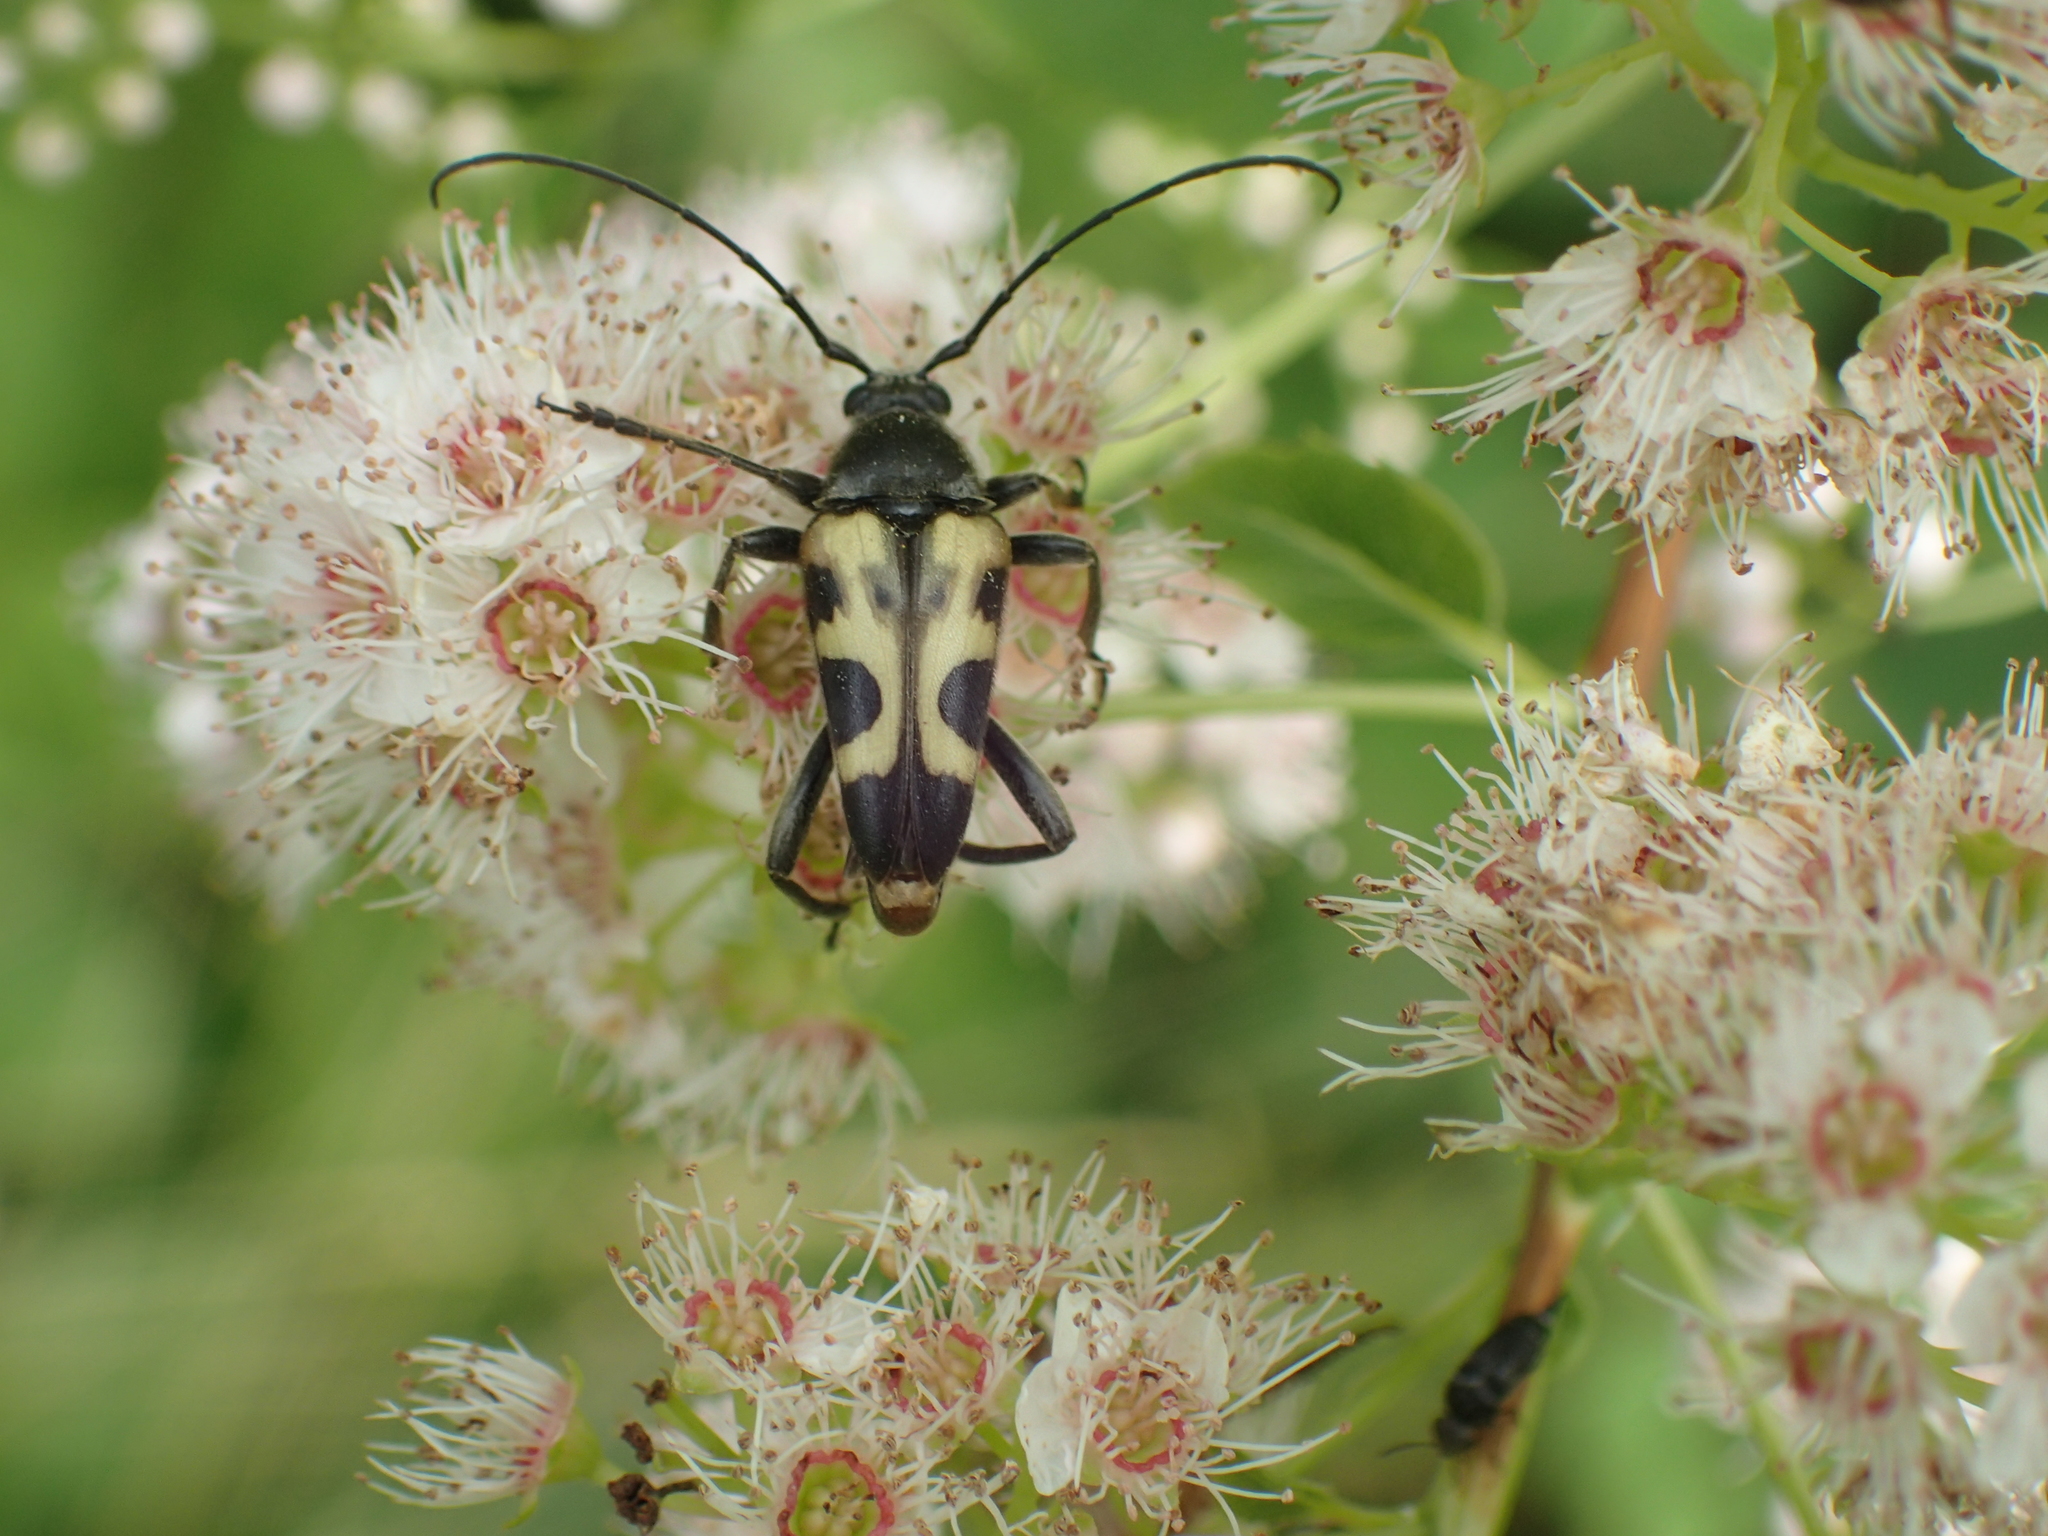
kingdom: Animalia
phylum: Arthropoda
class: Insecta
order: Coleoptera
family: Cerambycidae
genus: Judolia
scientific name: Judolia cordifera
